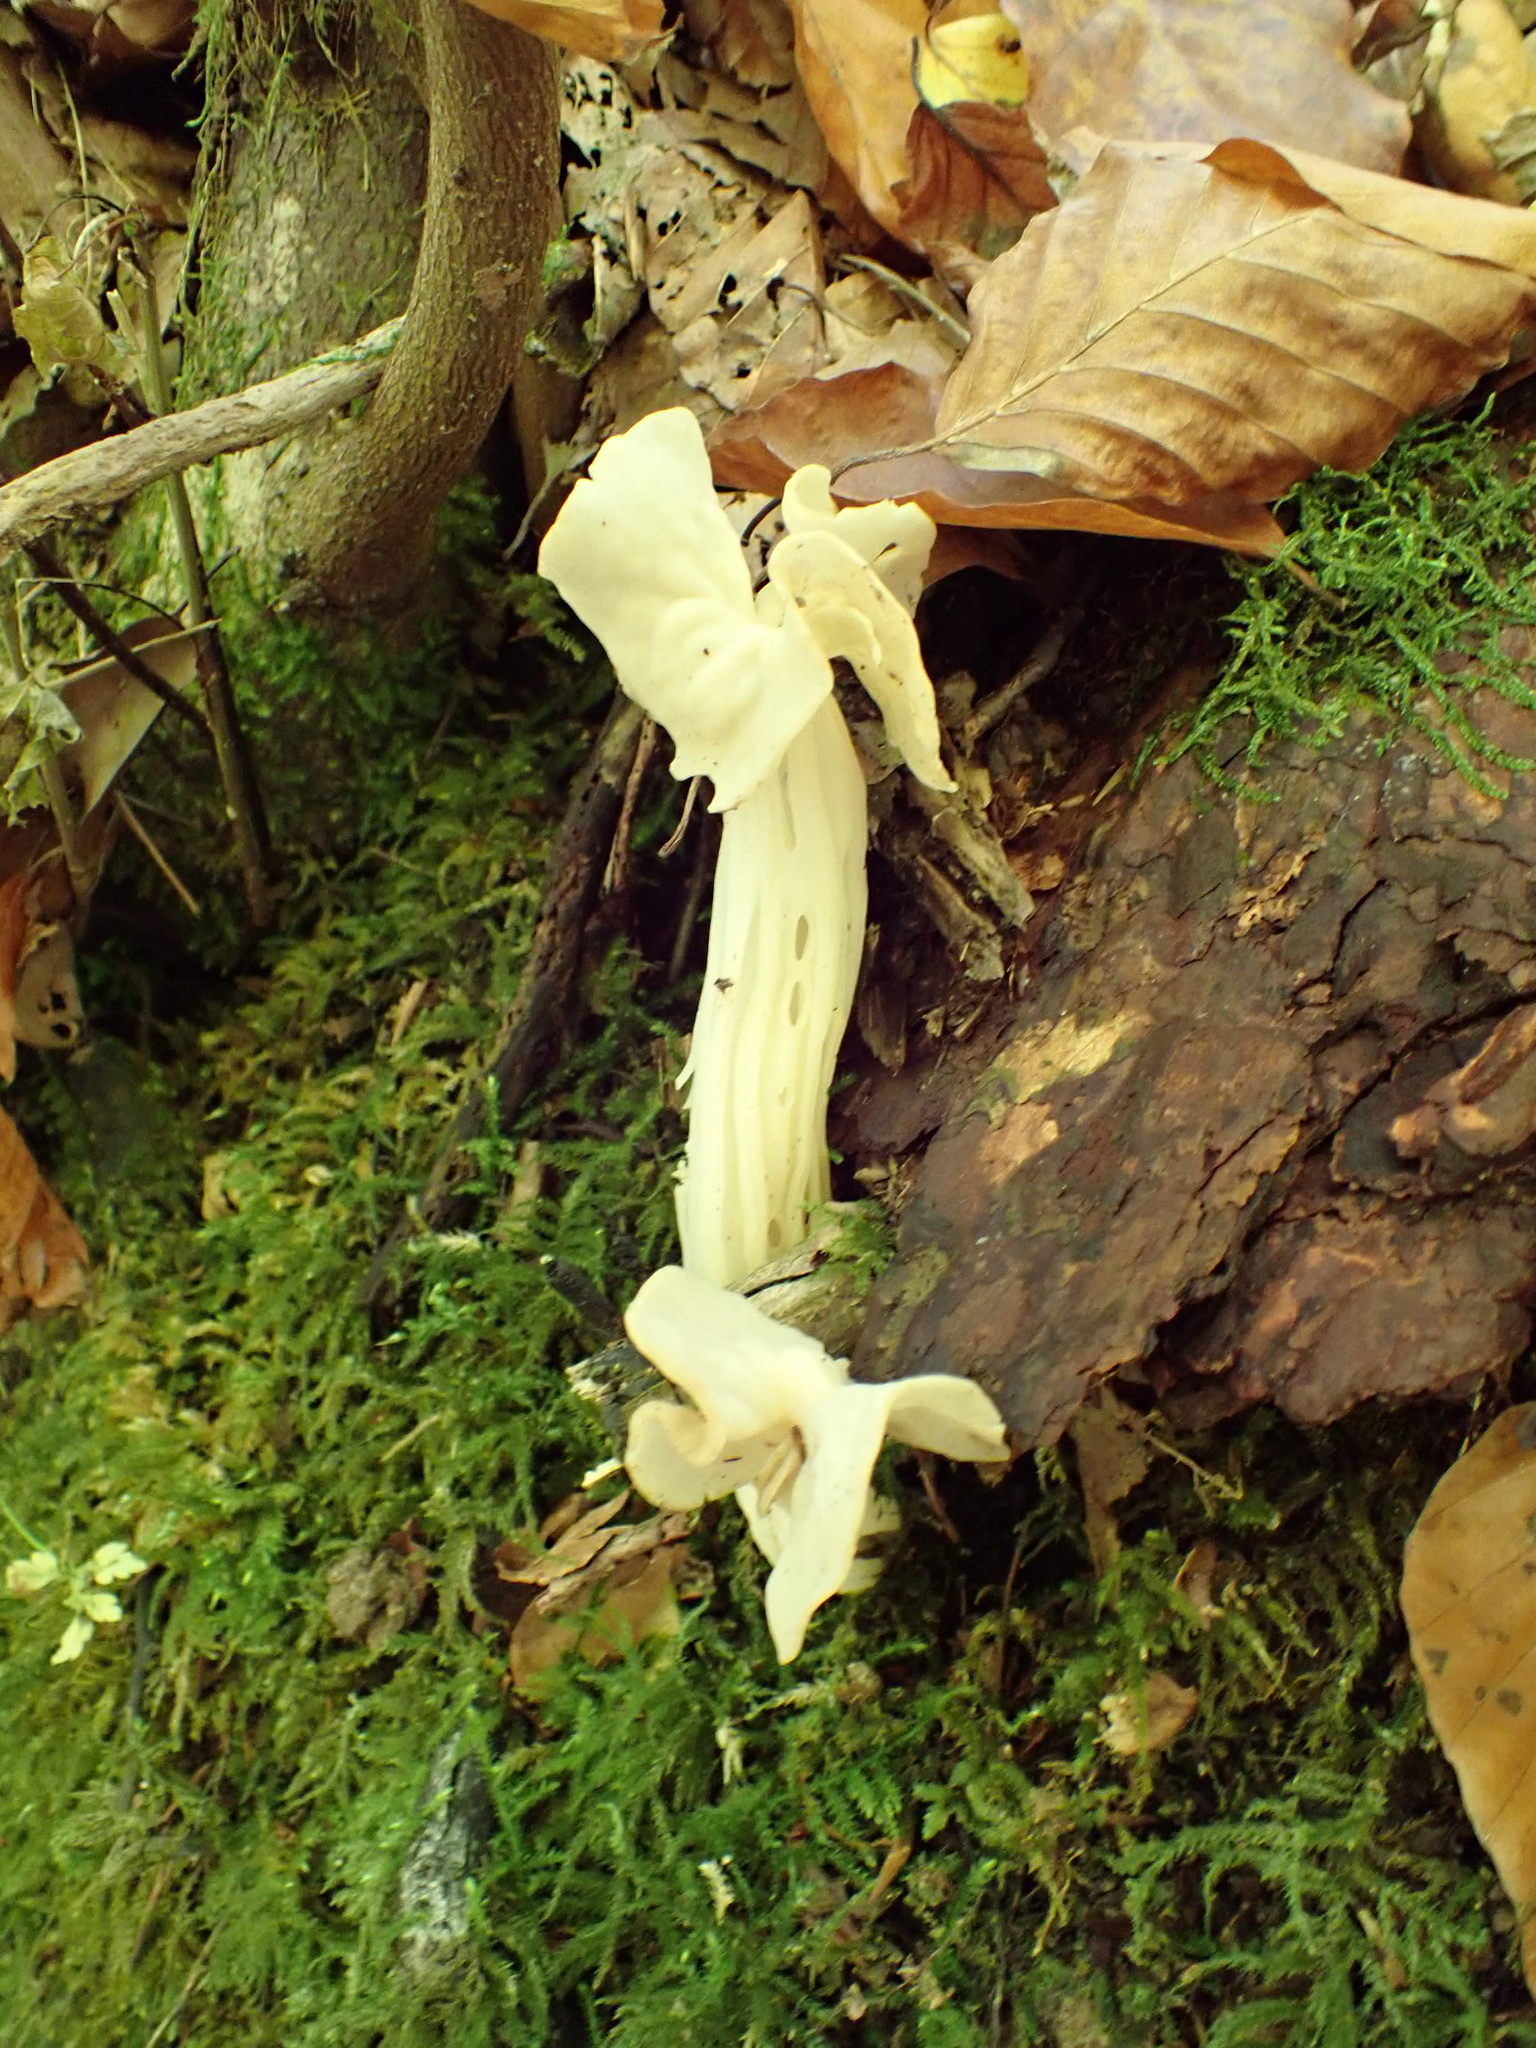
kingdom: Fungi
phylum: Ascomycota
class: Pezizomycetes
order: Pezizales
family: Helvellaceae
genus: Helvella
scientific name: Helvella crispa
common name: White saddle
